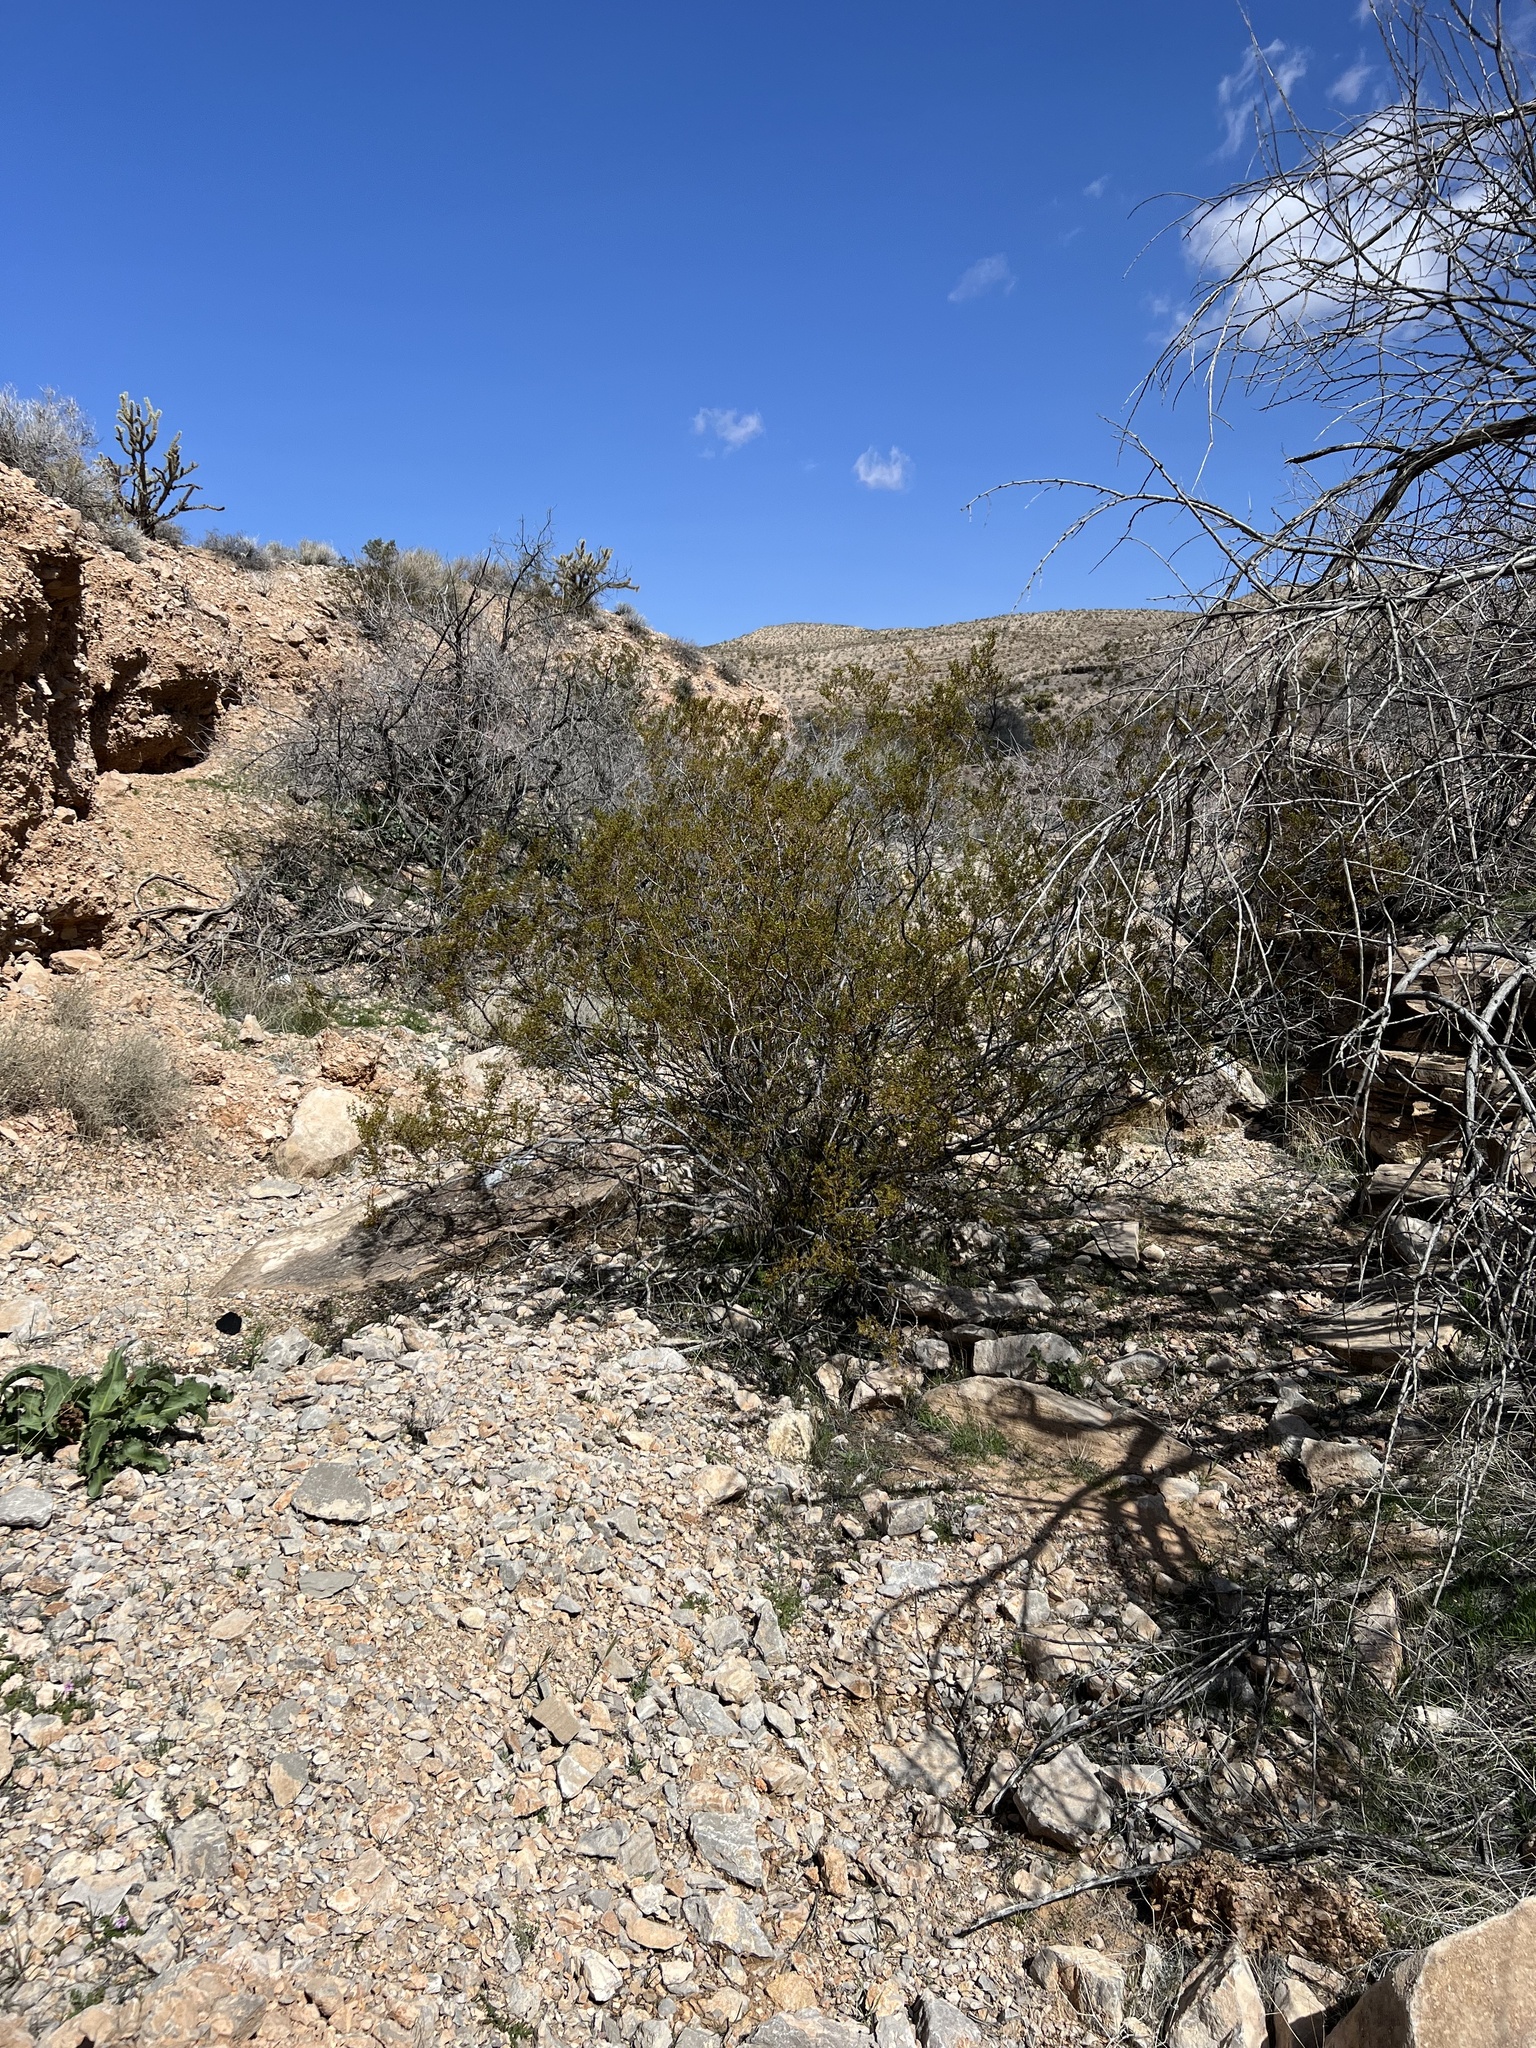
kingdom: Plantae
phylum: Tracheophyta
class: Magnoliopsida
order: Zygophyllales
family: Zygophyllaceae
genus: Larrea
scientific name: Larrea tridentata
